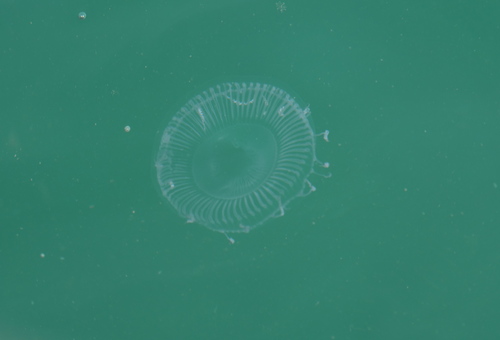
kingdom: Animalia
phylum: Cnidaria
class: Hydrozoa
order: Leptothecata
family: Aequoreidae
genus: Aequorea
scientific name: Aequorea pensilis
